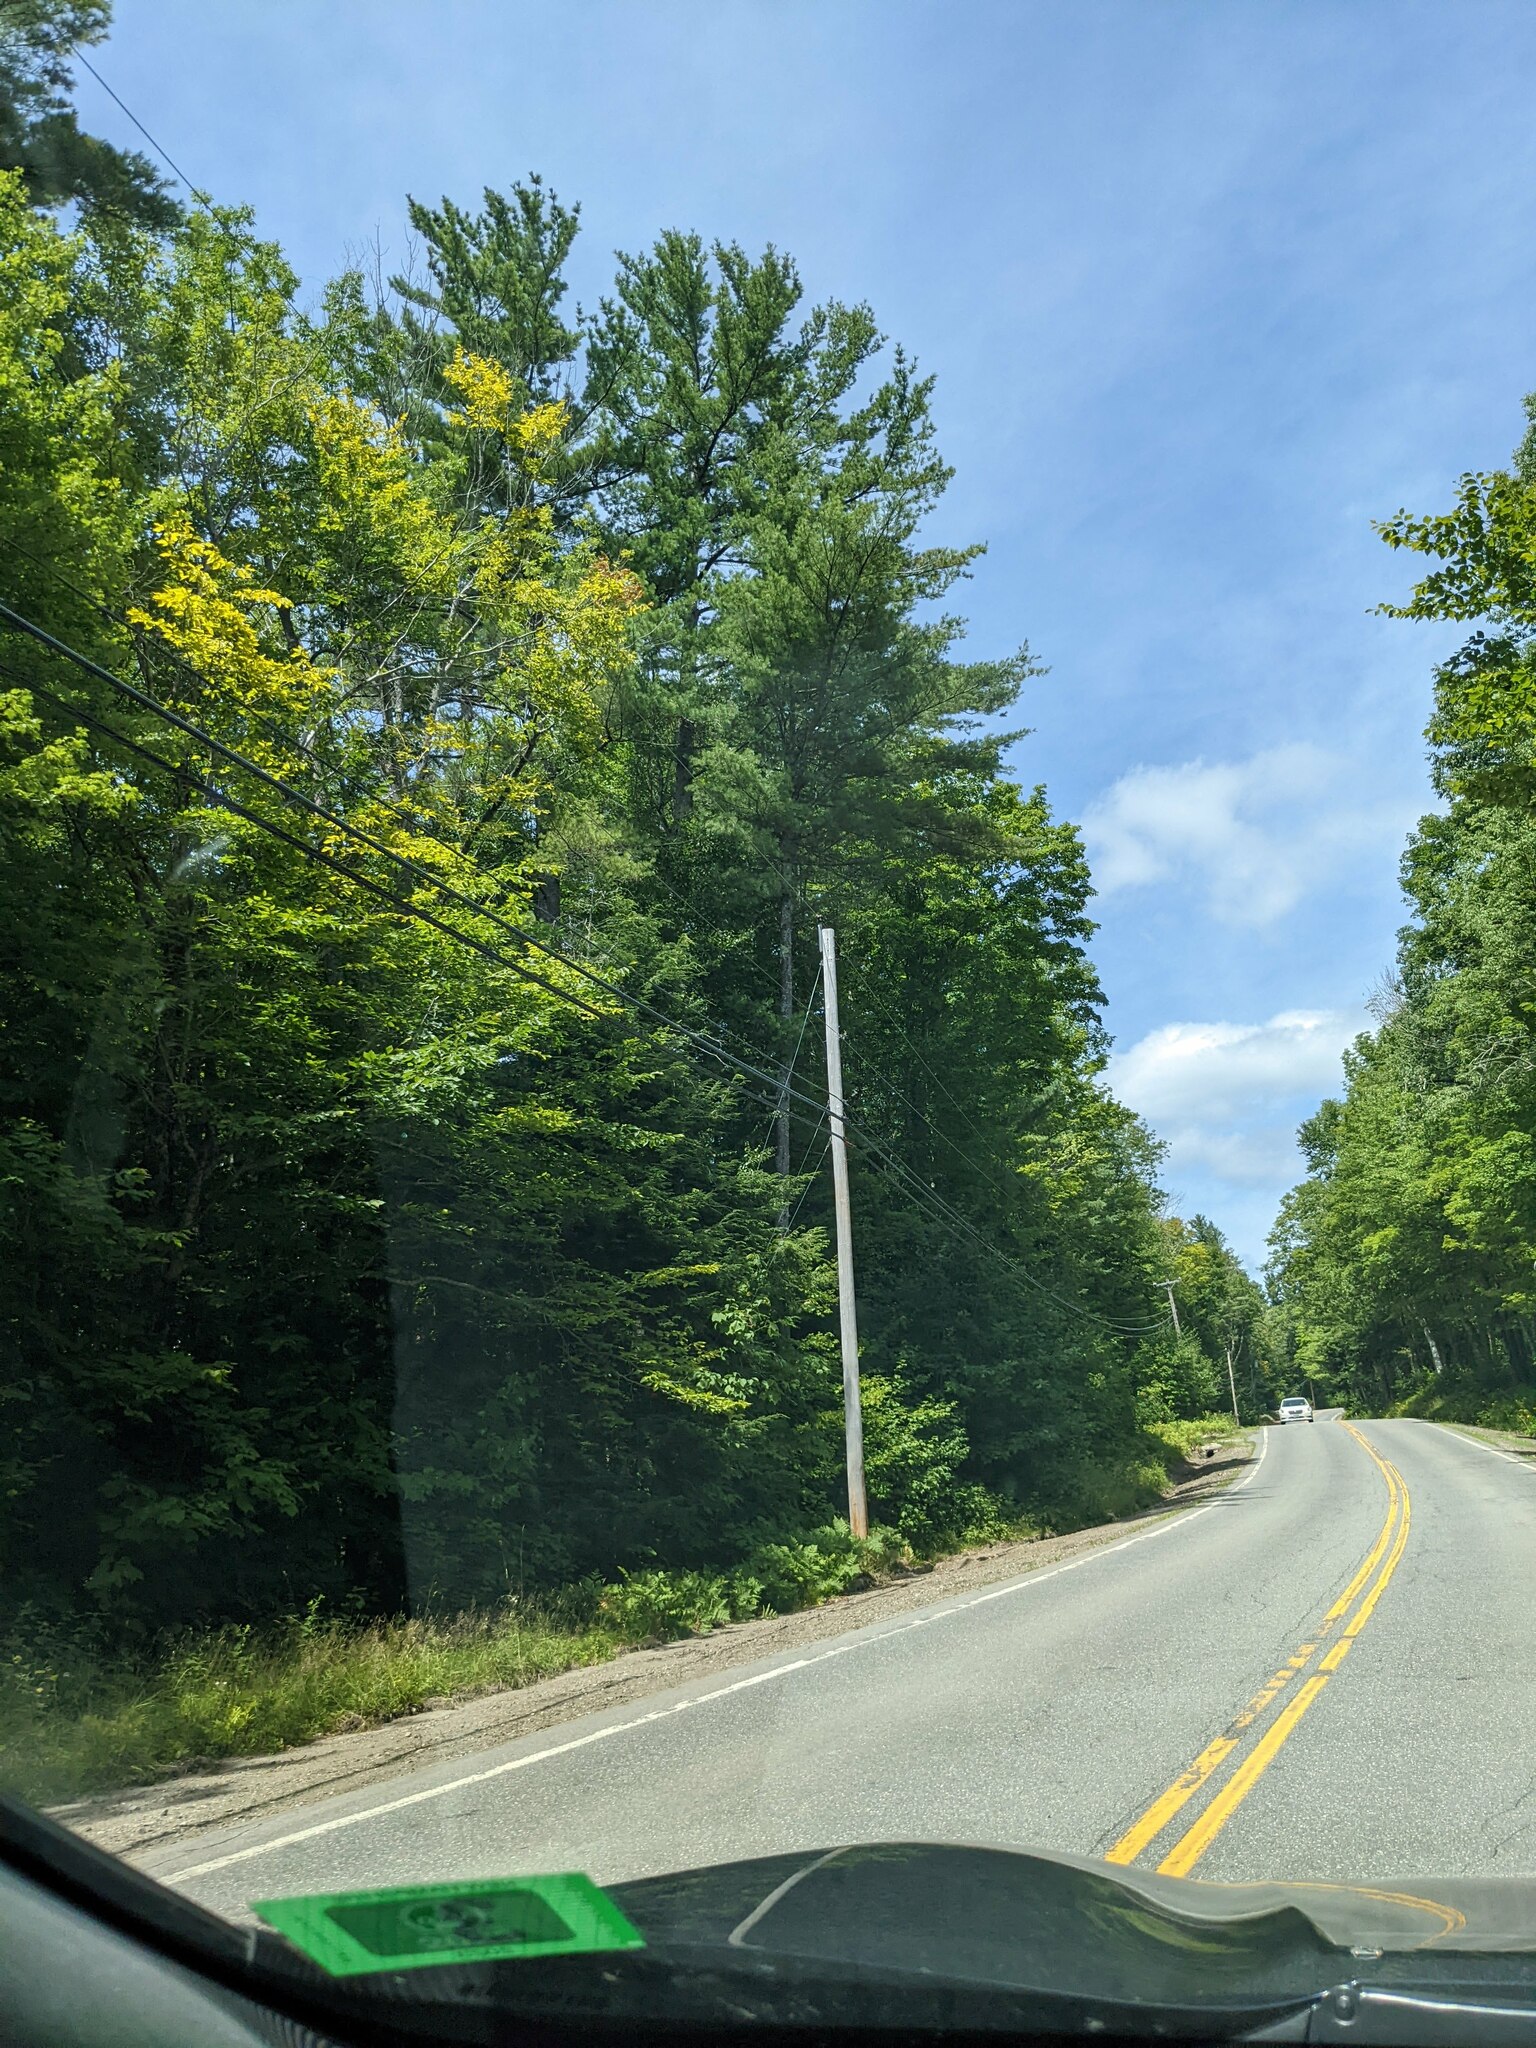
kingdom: Plantae
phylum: Tracheophyta
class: Pinopsida
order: Pinales
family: Pinaceae
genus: Pinus
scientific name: Pinus strobus
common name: Weymouth pine
